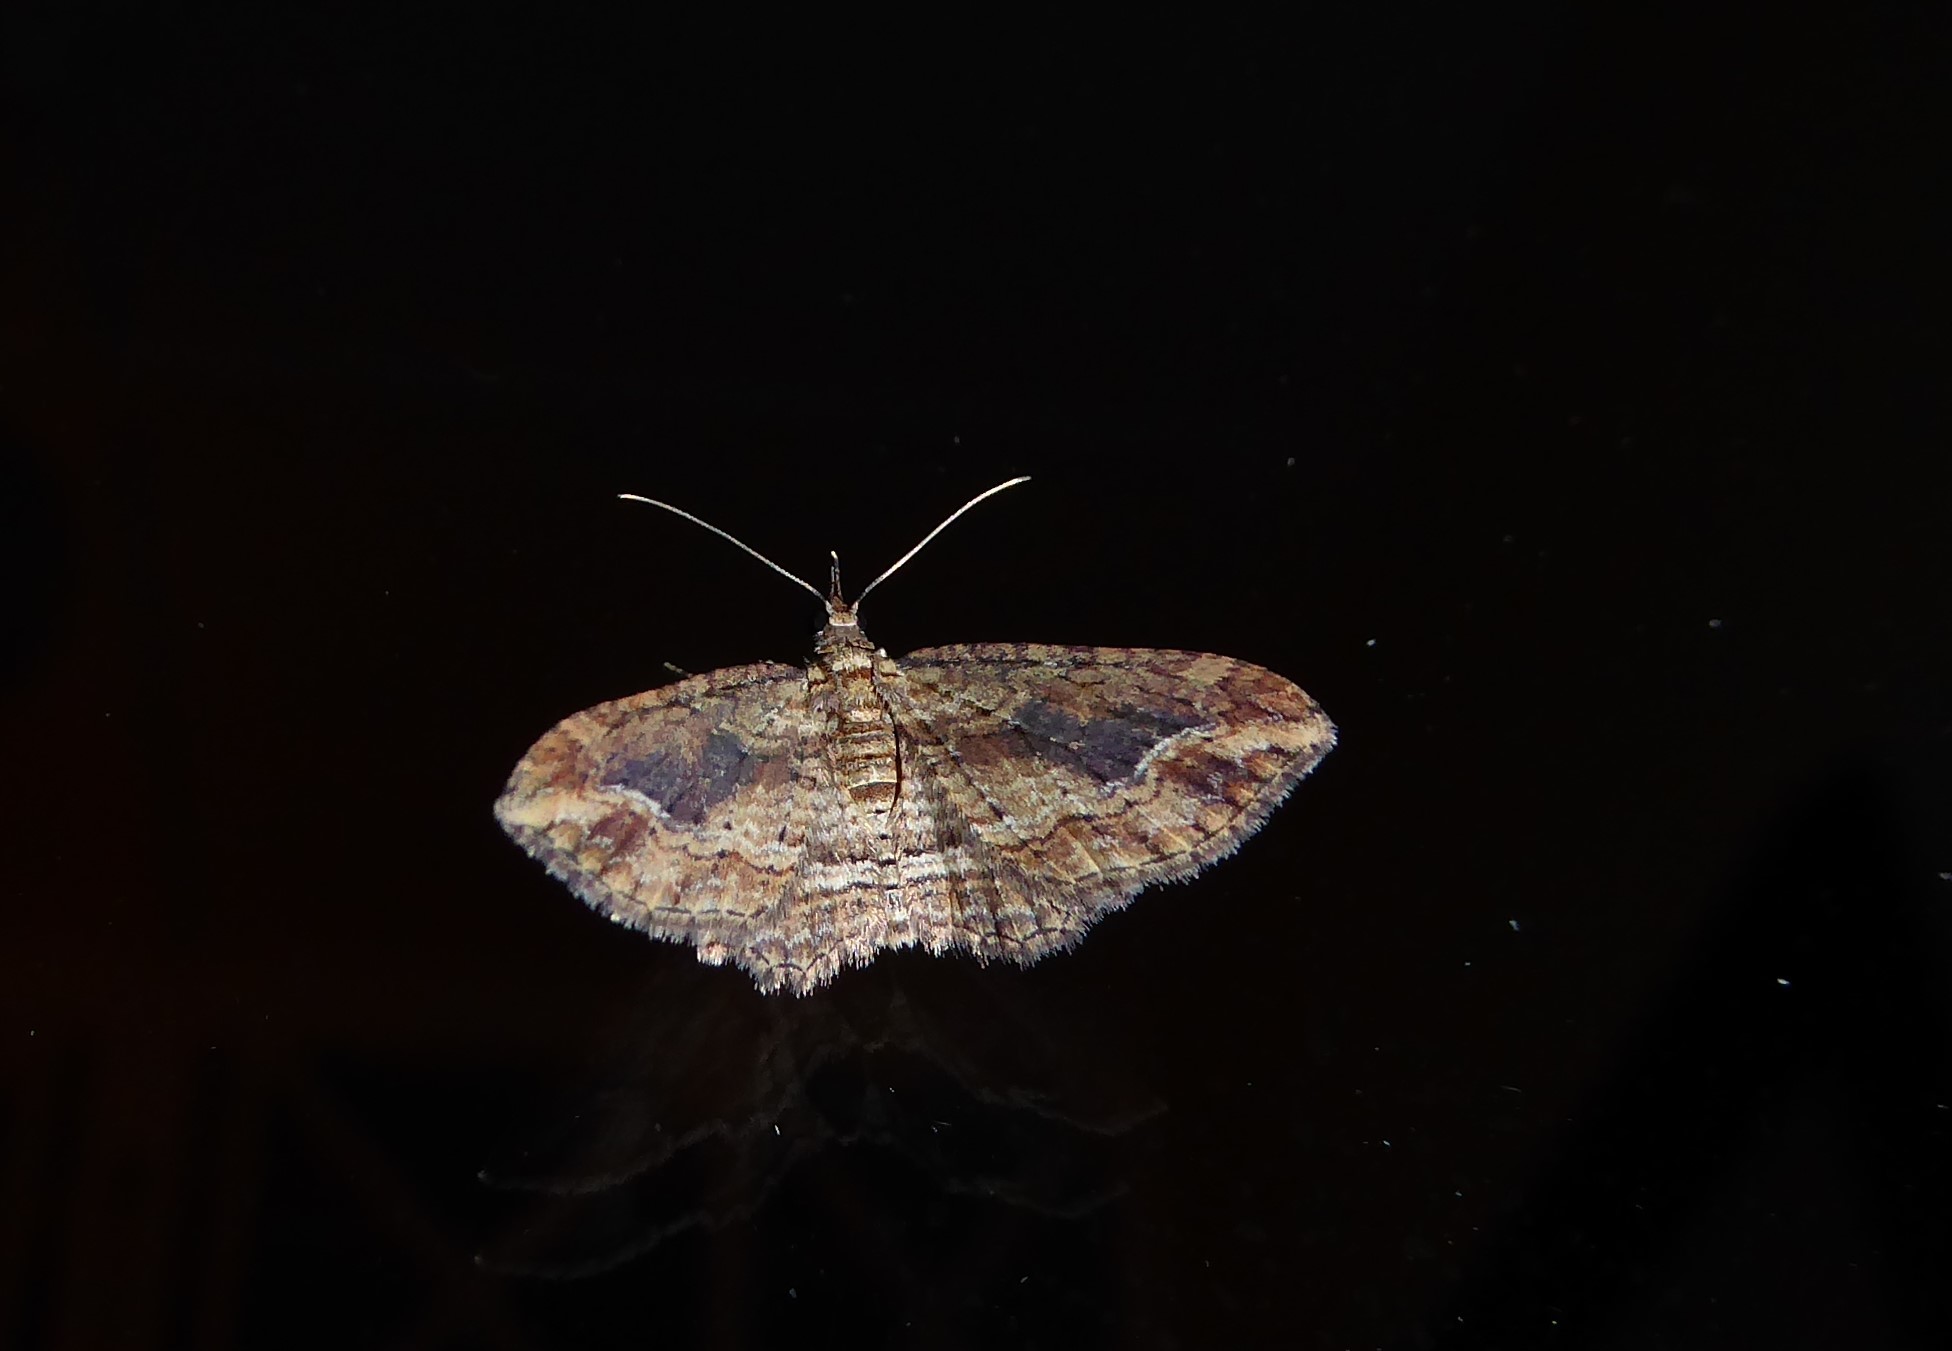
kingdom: Animalia
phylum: Arthropoda
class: Insecta
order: Lepidoptera
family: Geometridae
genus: Chloroclystis
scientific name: Chloroclystis filata
